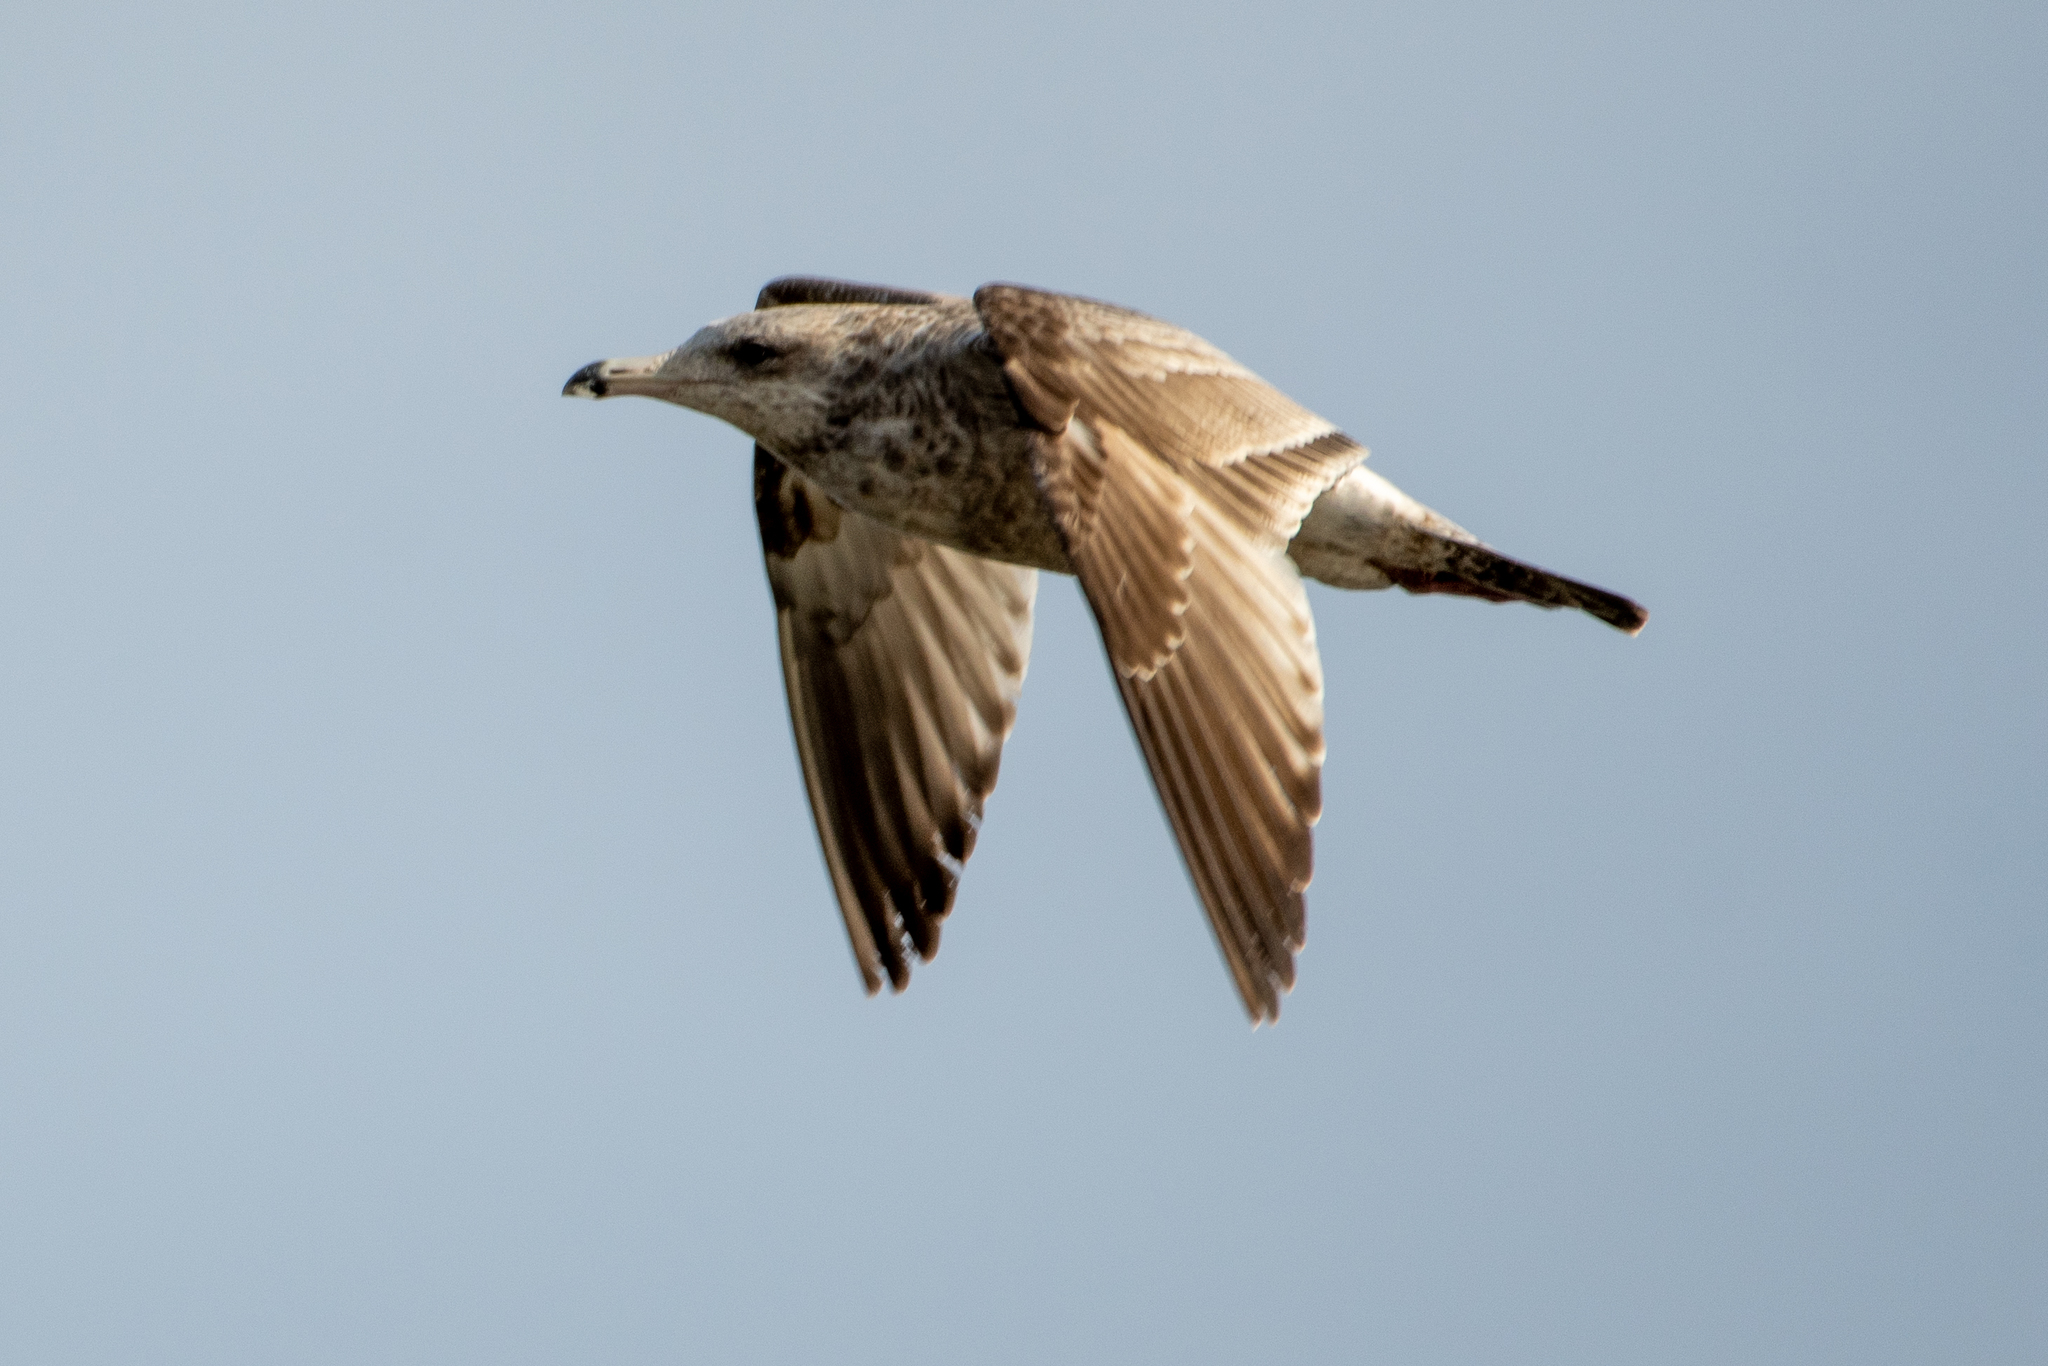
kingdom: Animalia
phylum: Chordata
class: Aves
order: Charadriiformes
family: Laridae
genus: Larus
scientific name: Larus californicus
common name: California gull
